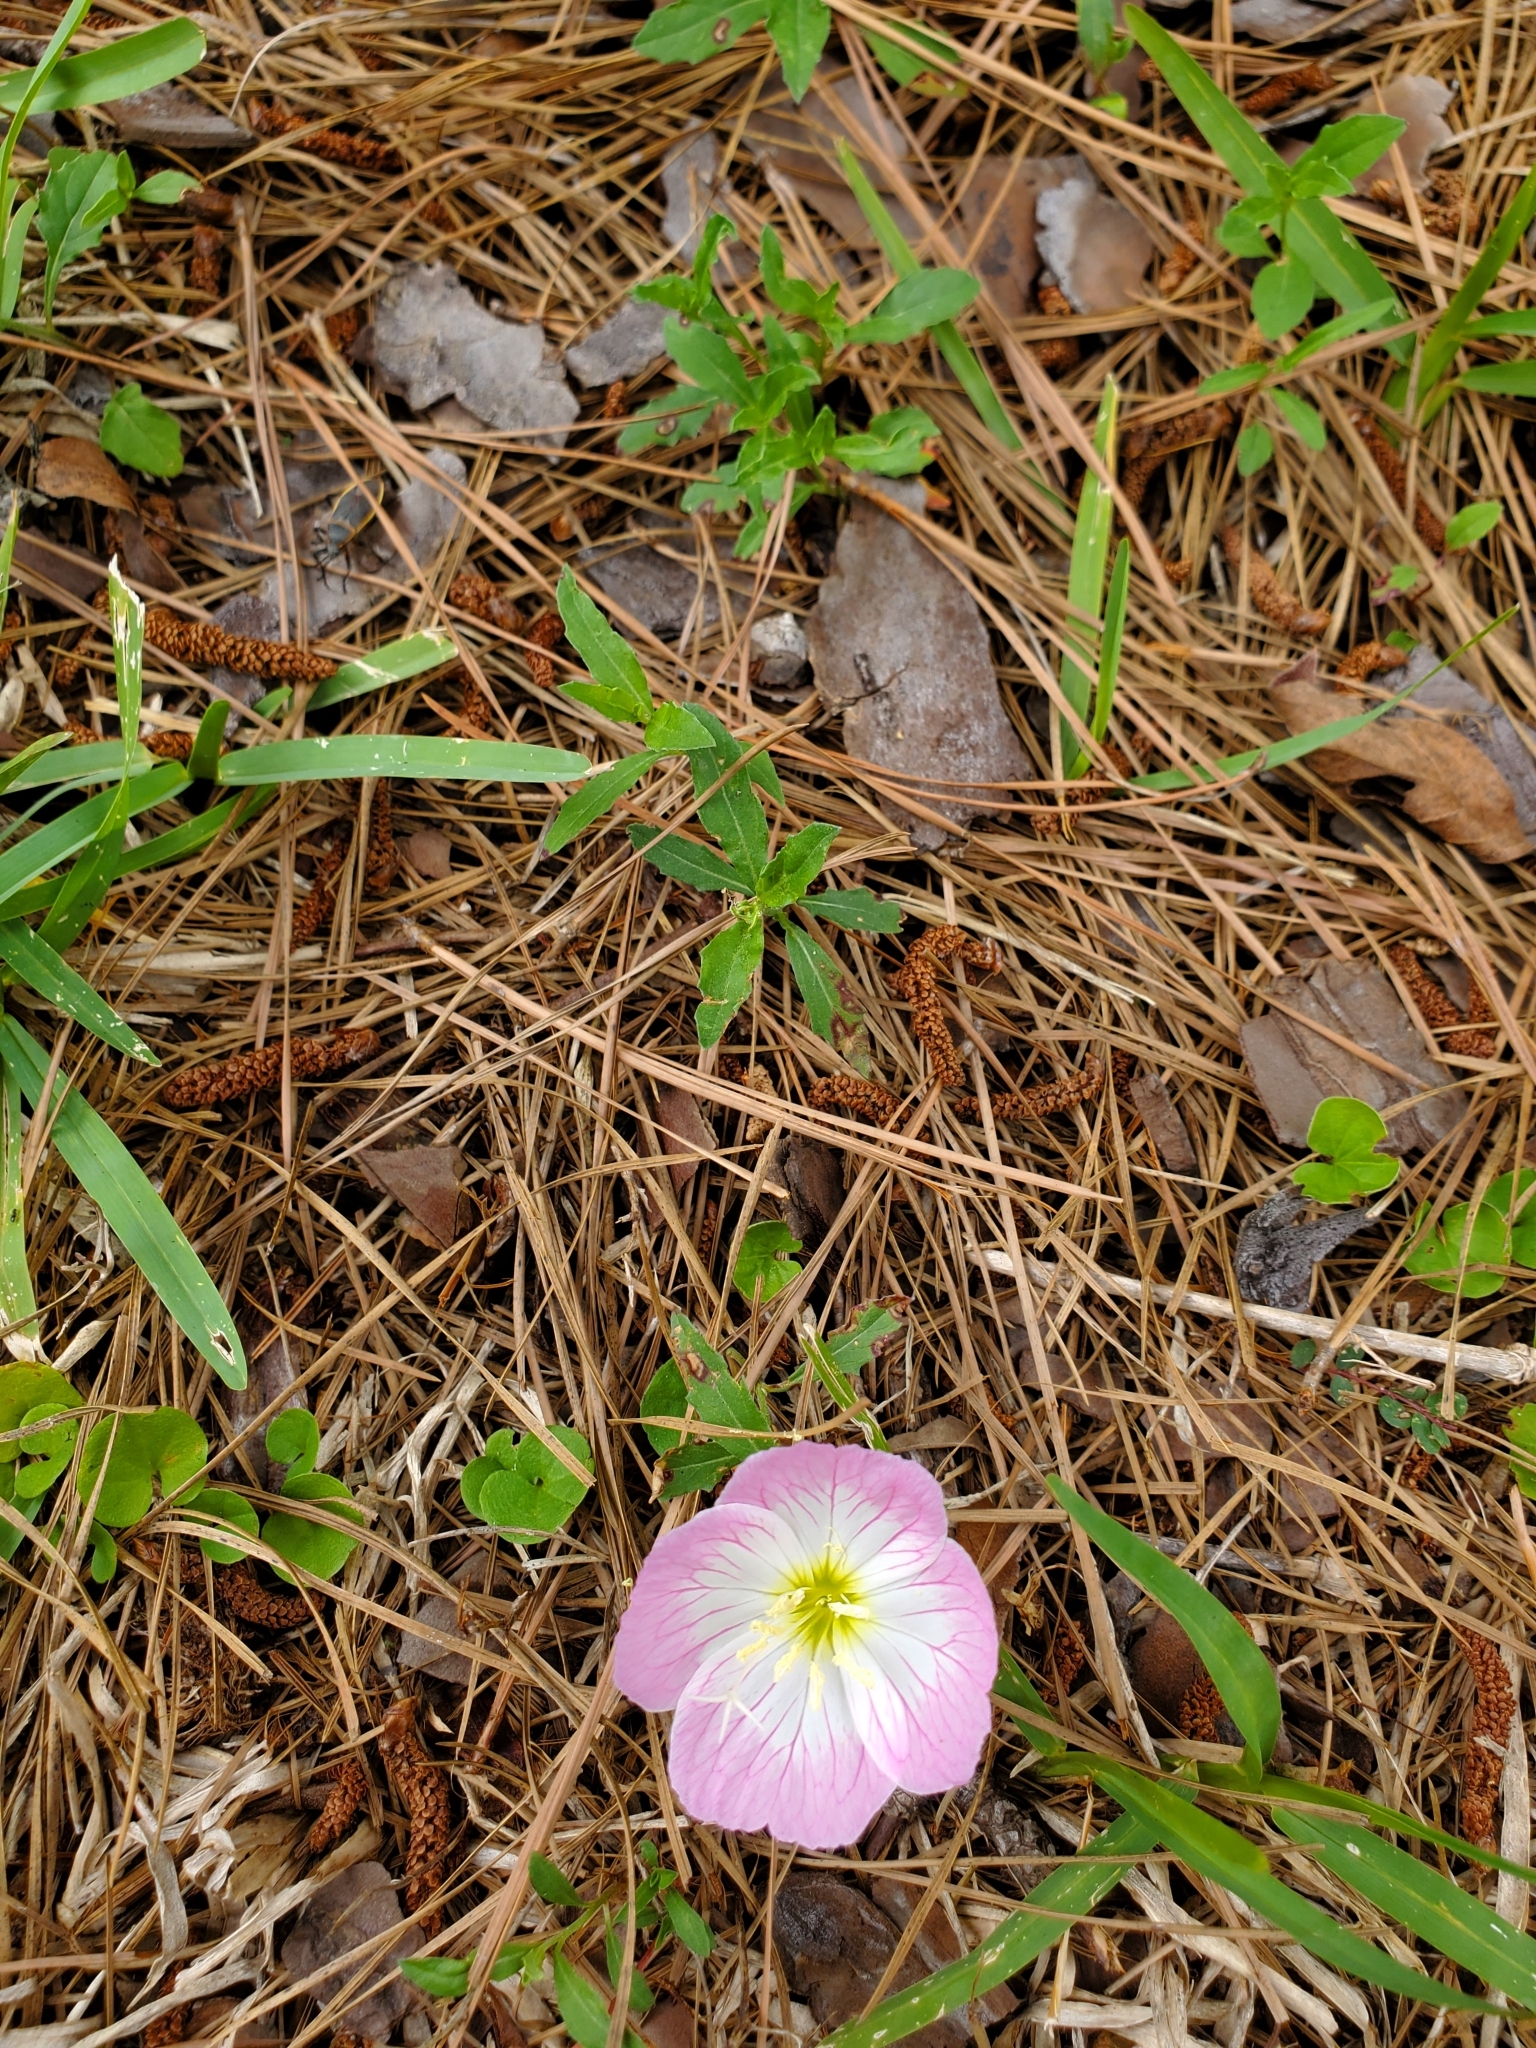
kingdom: Plantae
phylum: Tracheophyta
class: Magnoliopsida
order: Myrtales
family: Onagraceae
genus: Oenothera
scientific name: Oenothera speciosa
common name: White evening-primrose
